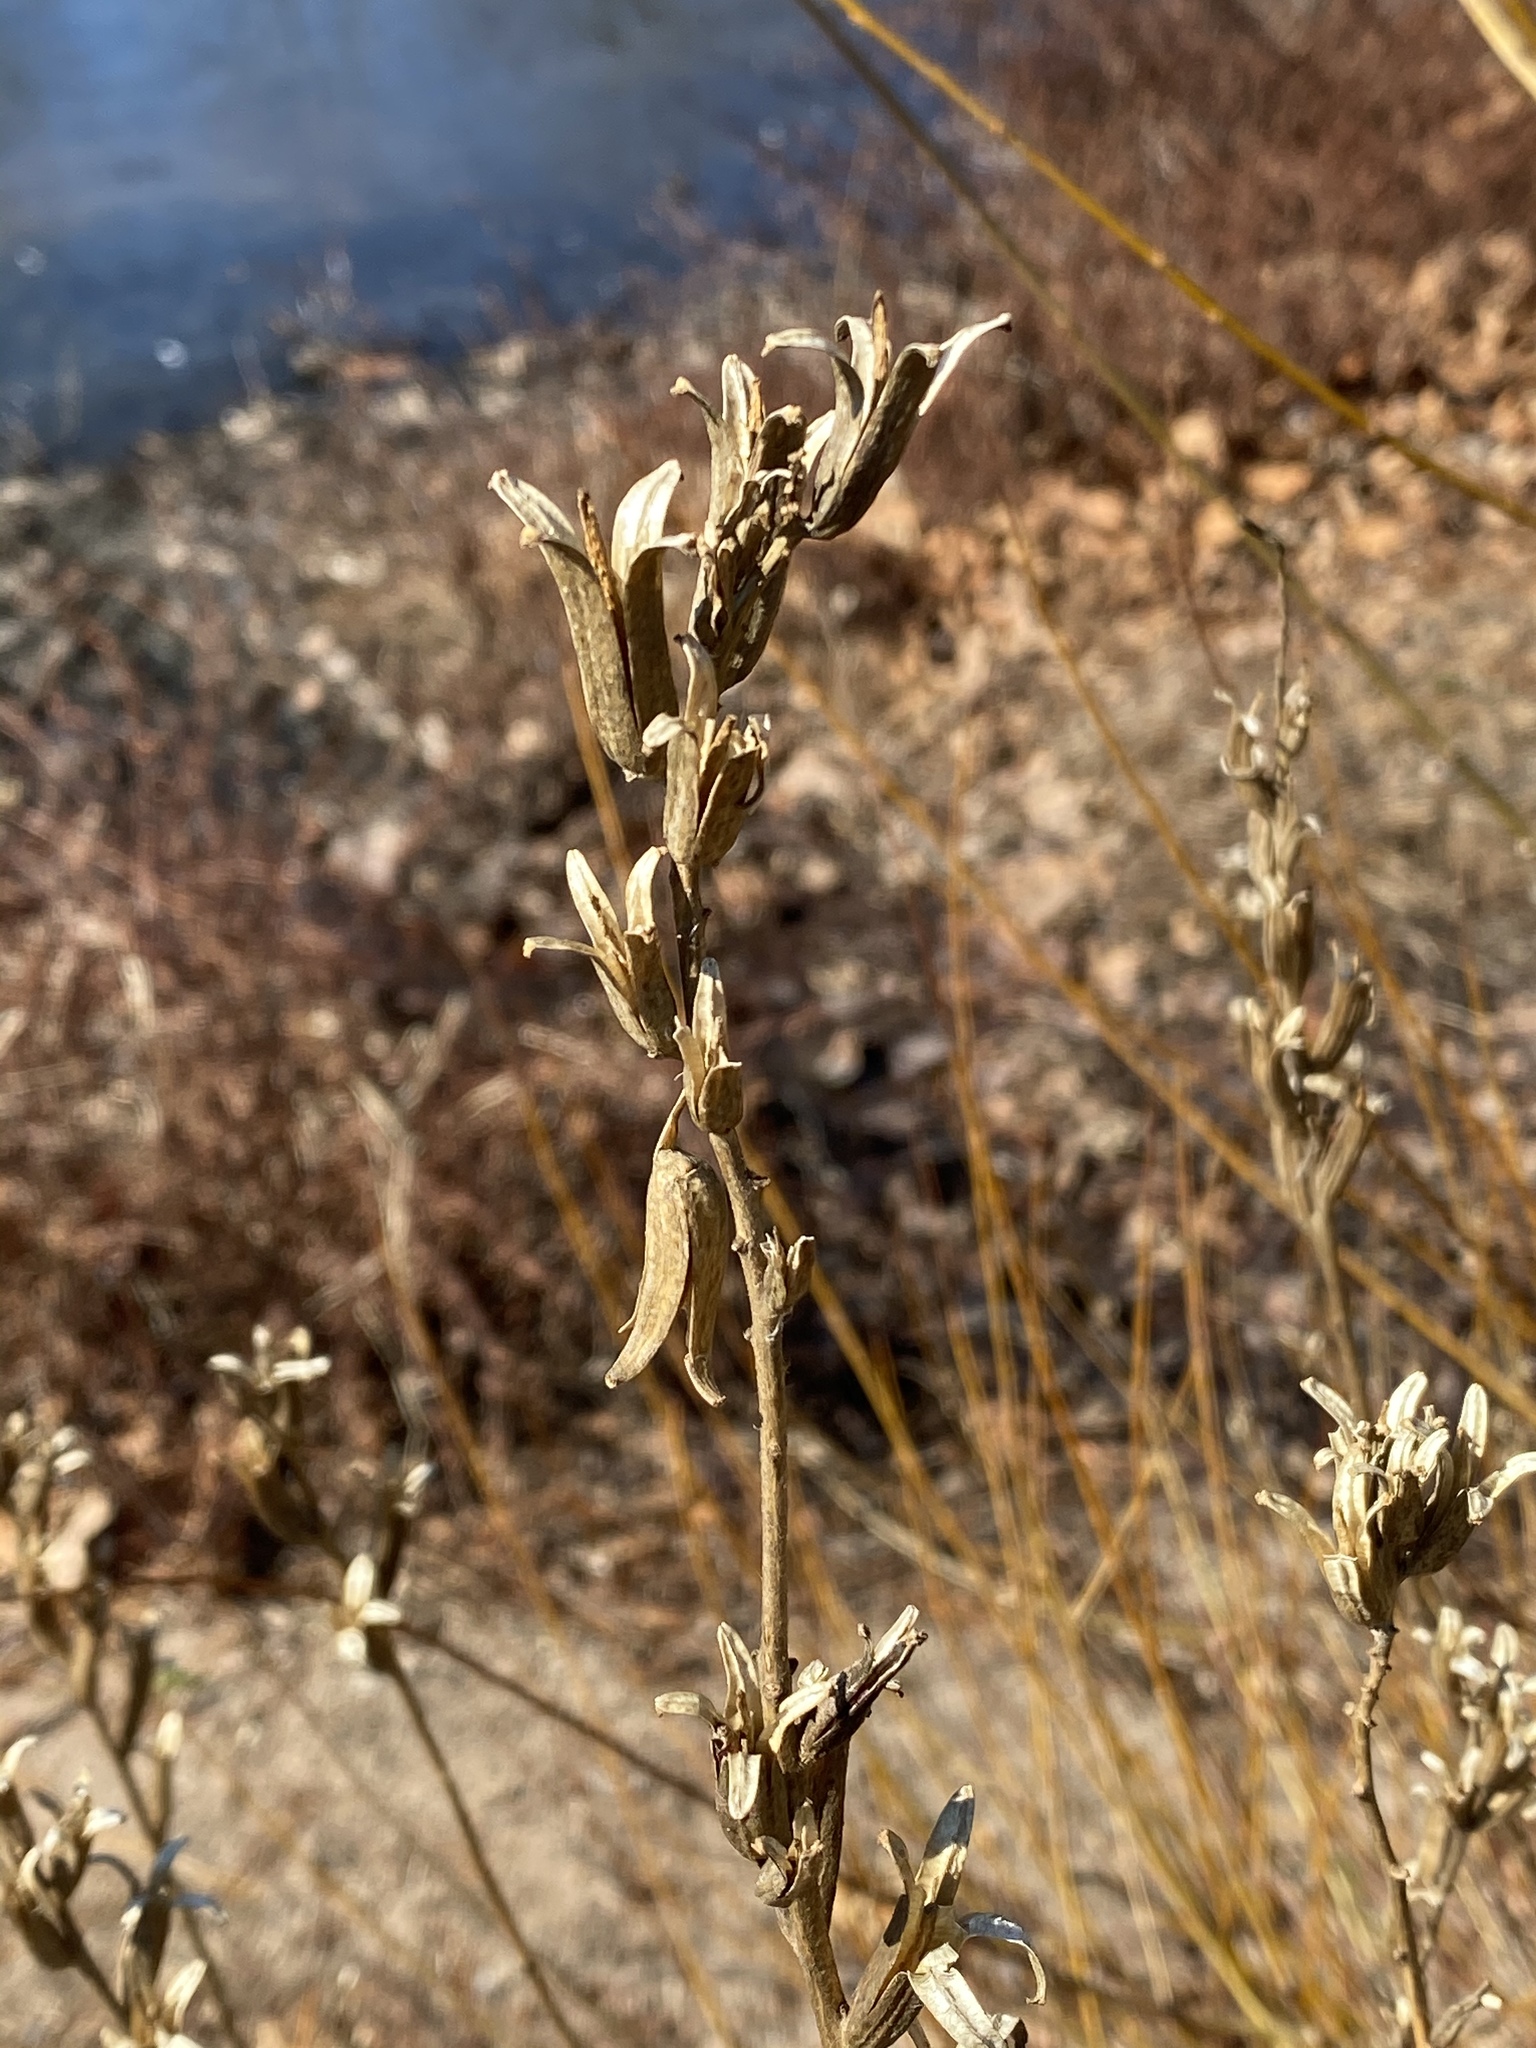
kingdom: Plantae
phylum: Tracheophyta
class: Magnoliopsida
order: Myrtales
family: Onagraceae
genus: Oenothera
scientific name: Oenothera biennis
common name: Common evening-primrose
